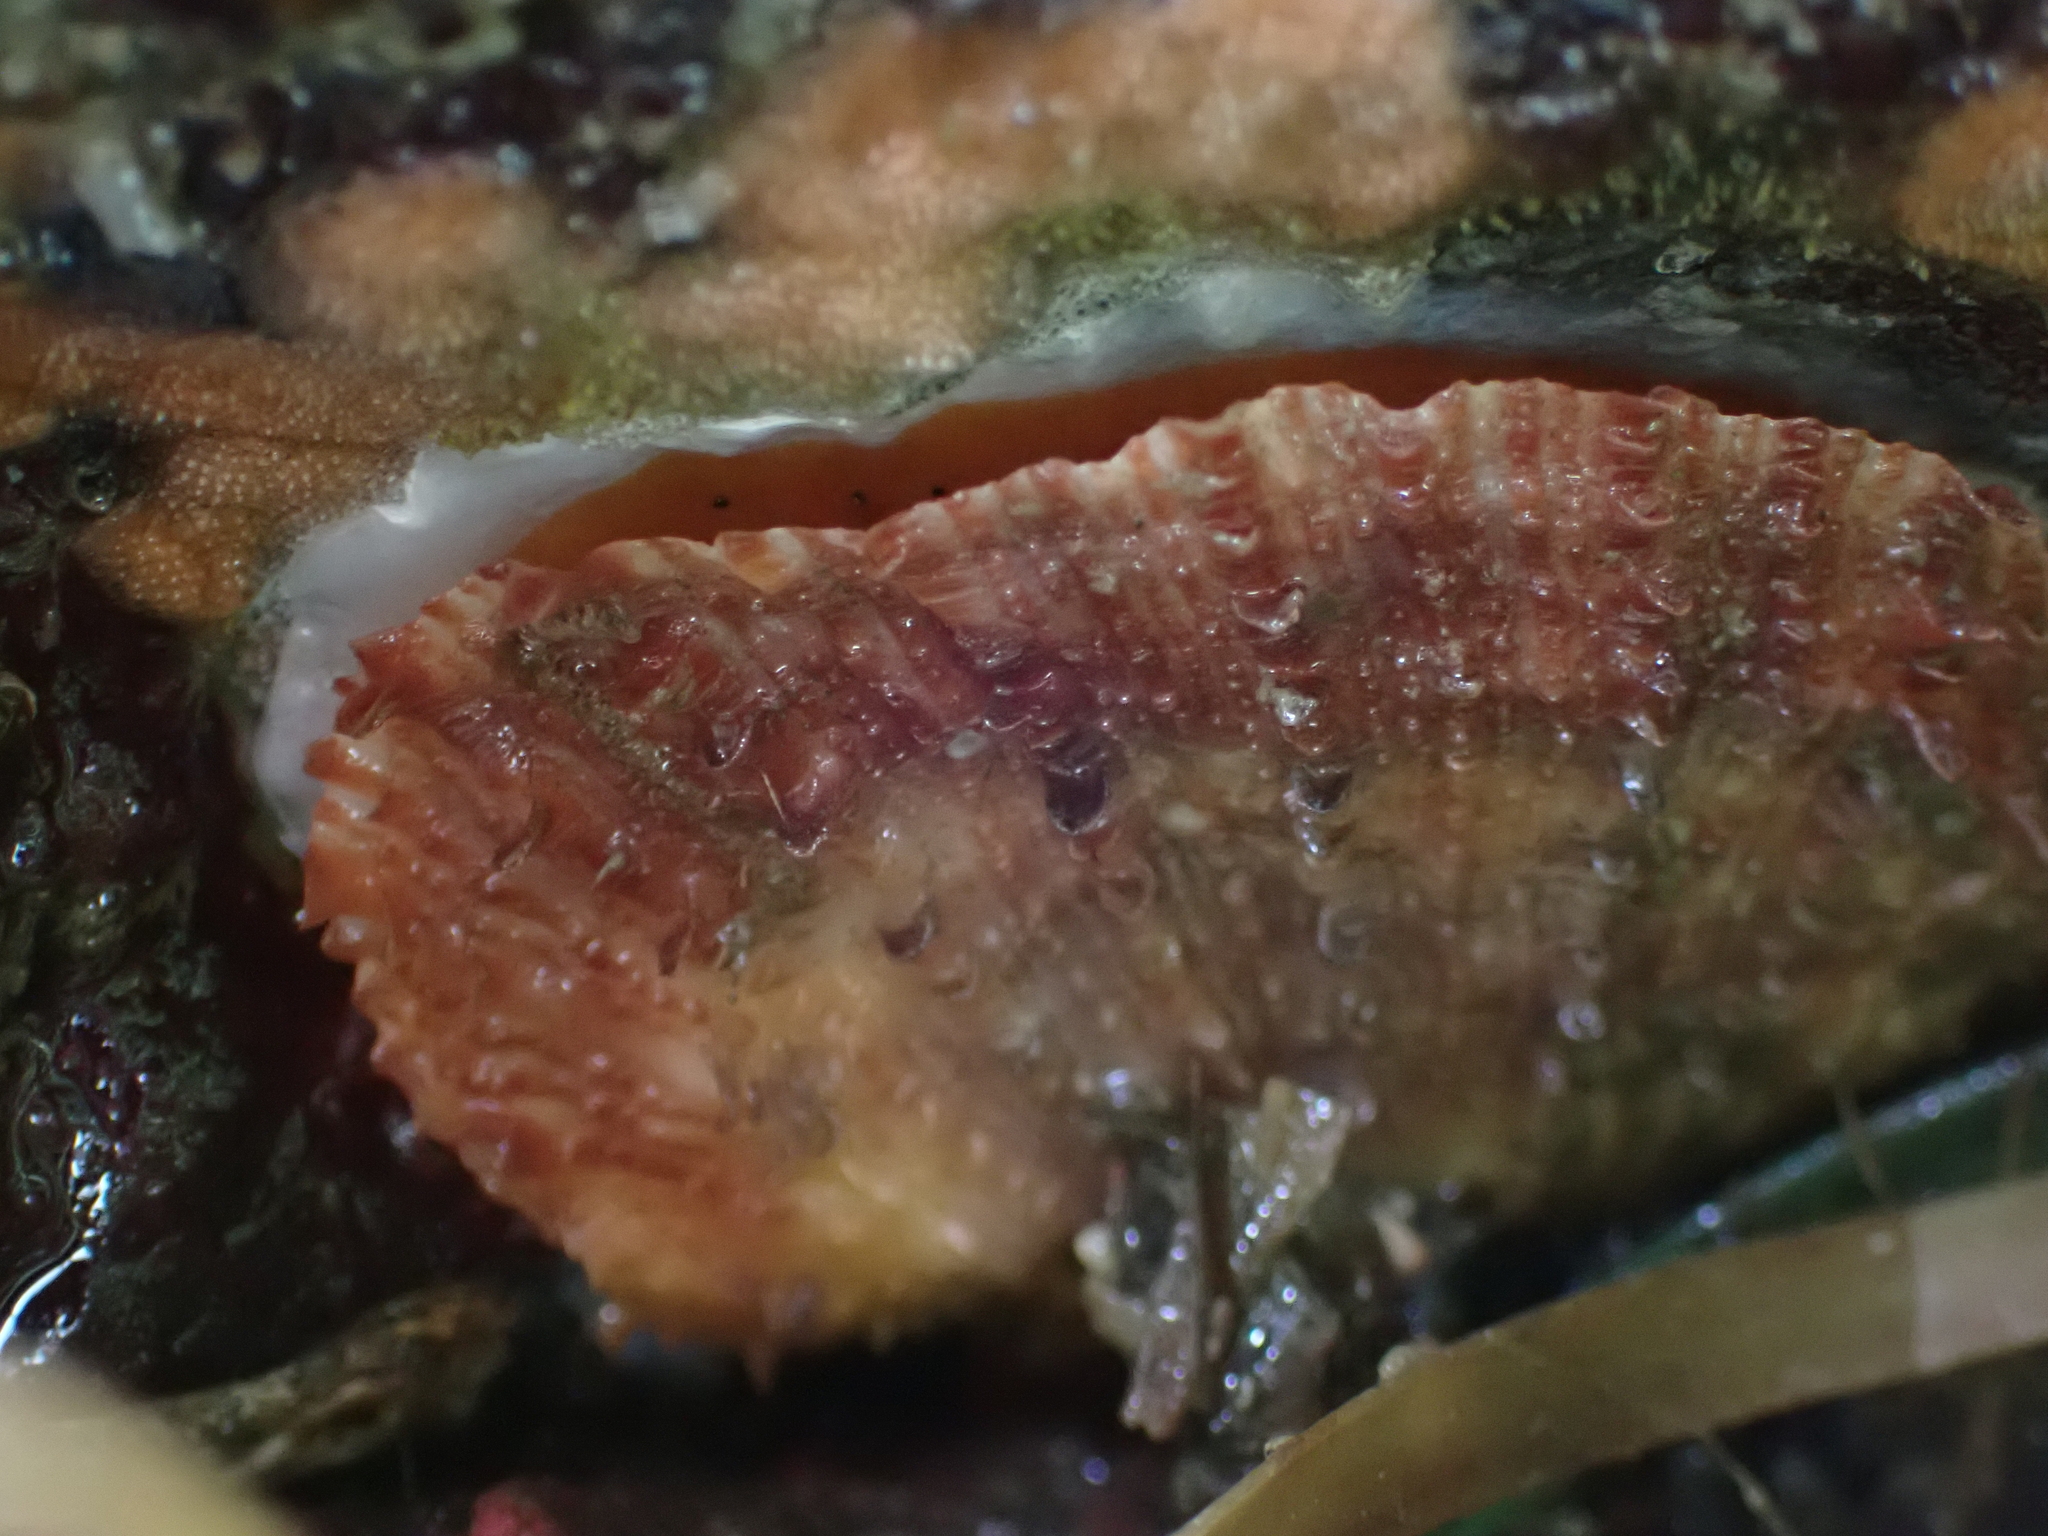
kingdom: Animalia
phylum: Mollusca
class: Bivalvia
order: Pectinida
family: Pectinidae
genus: Crassadoma
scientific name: Crassadoma gigantea
